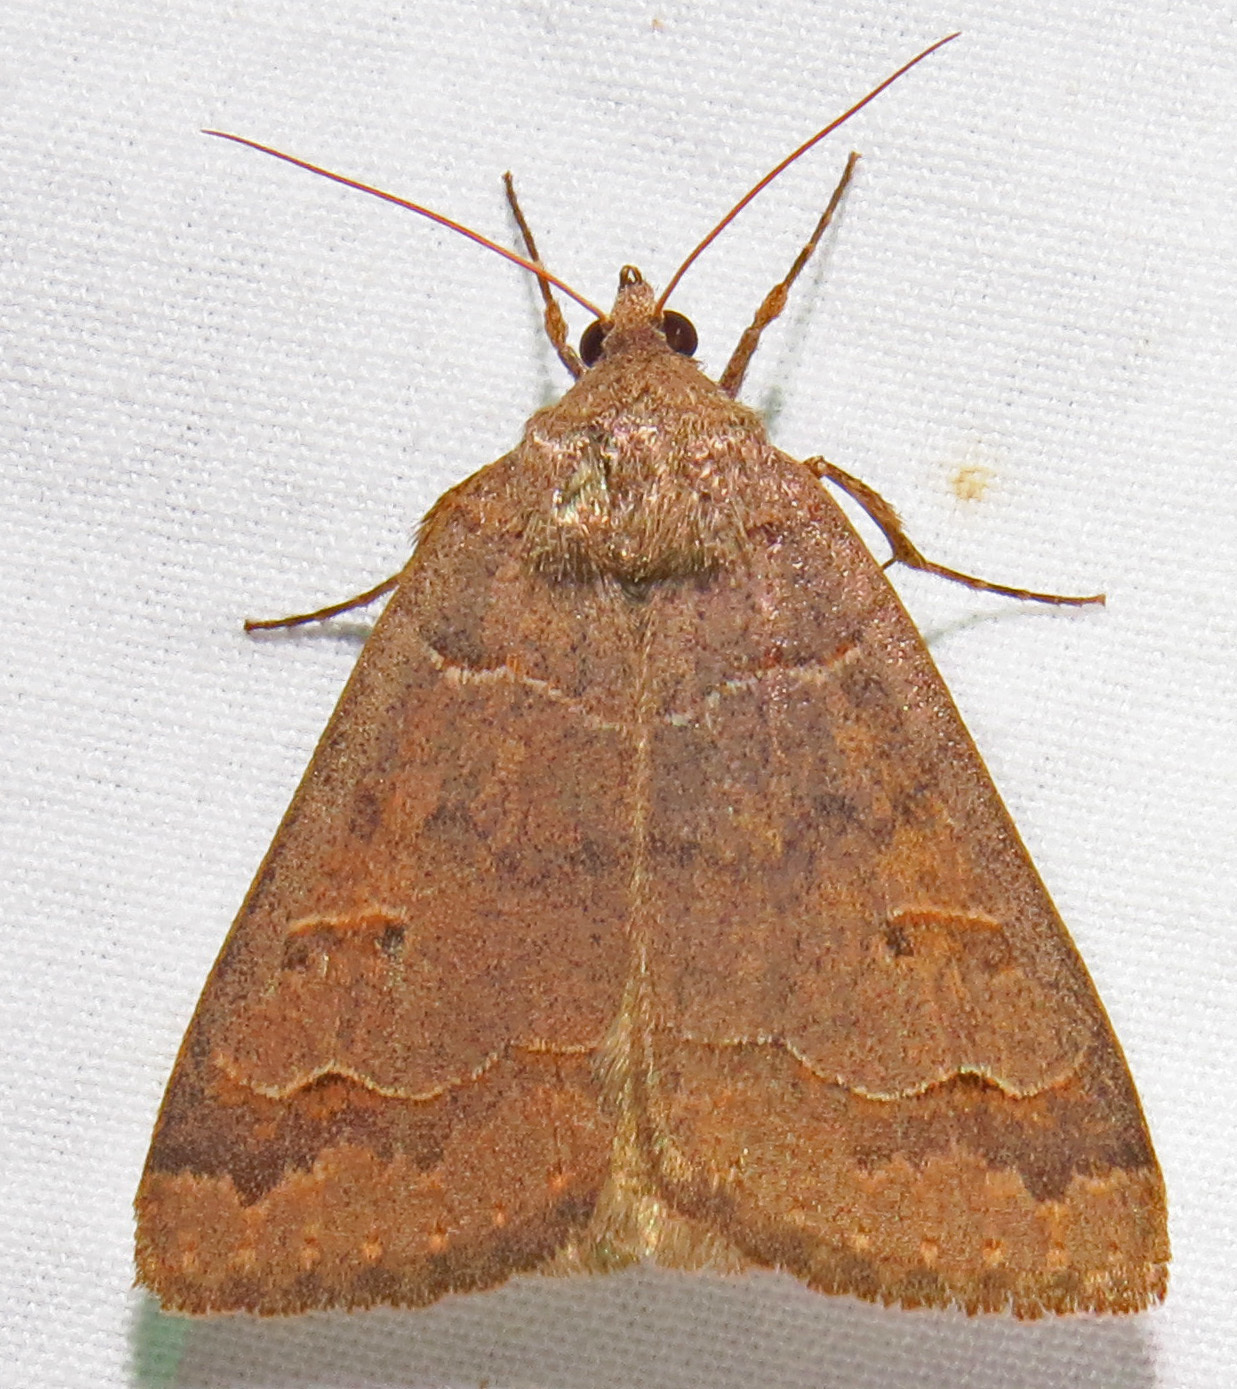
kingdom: Animalia
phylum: Arthropoda
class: Insecta
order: Lepidoptera
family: Erebidae
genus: Phoberia
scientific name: Phoberia atomaris
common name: Common oak moth
